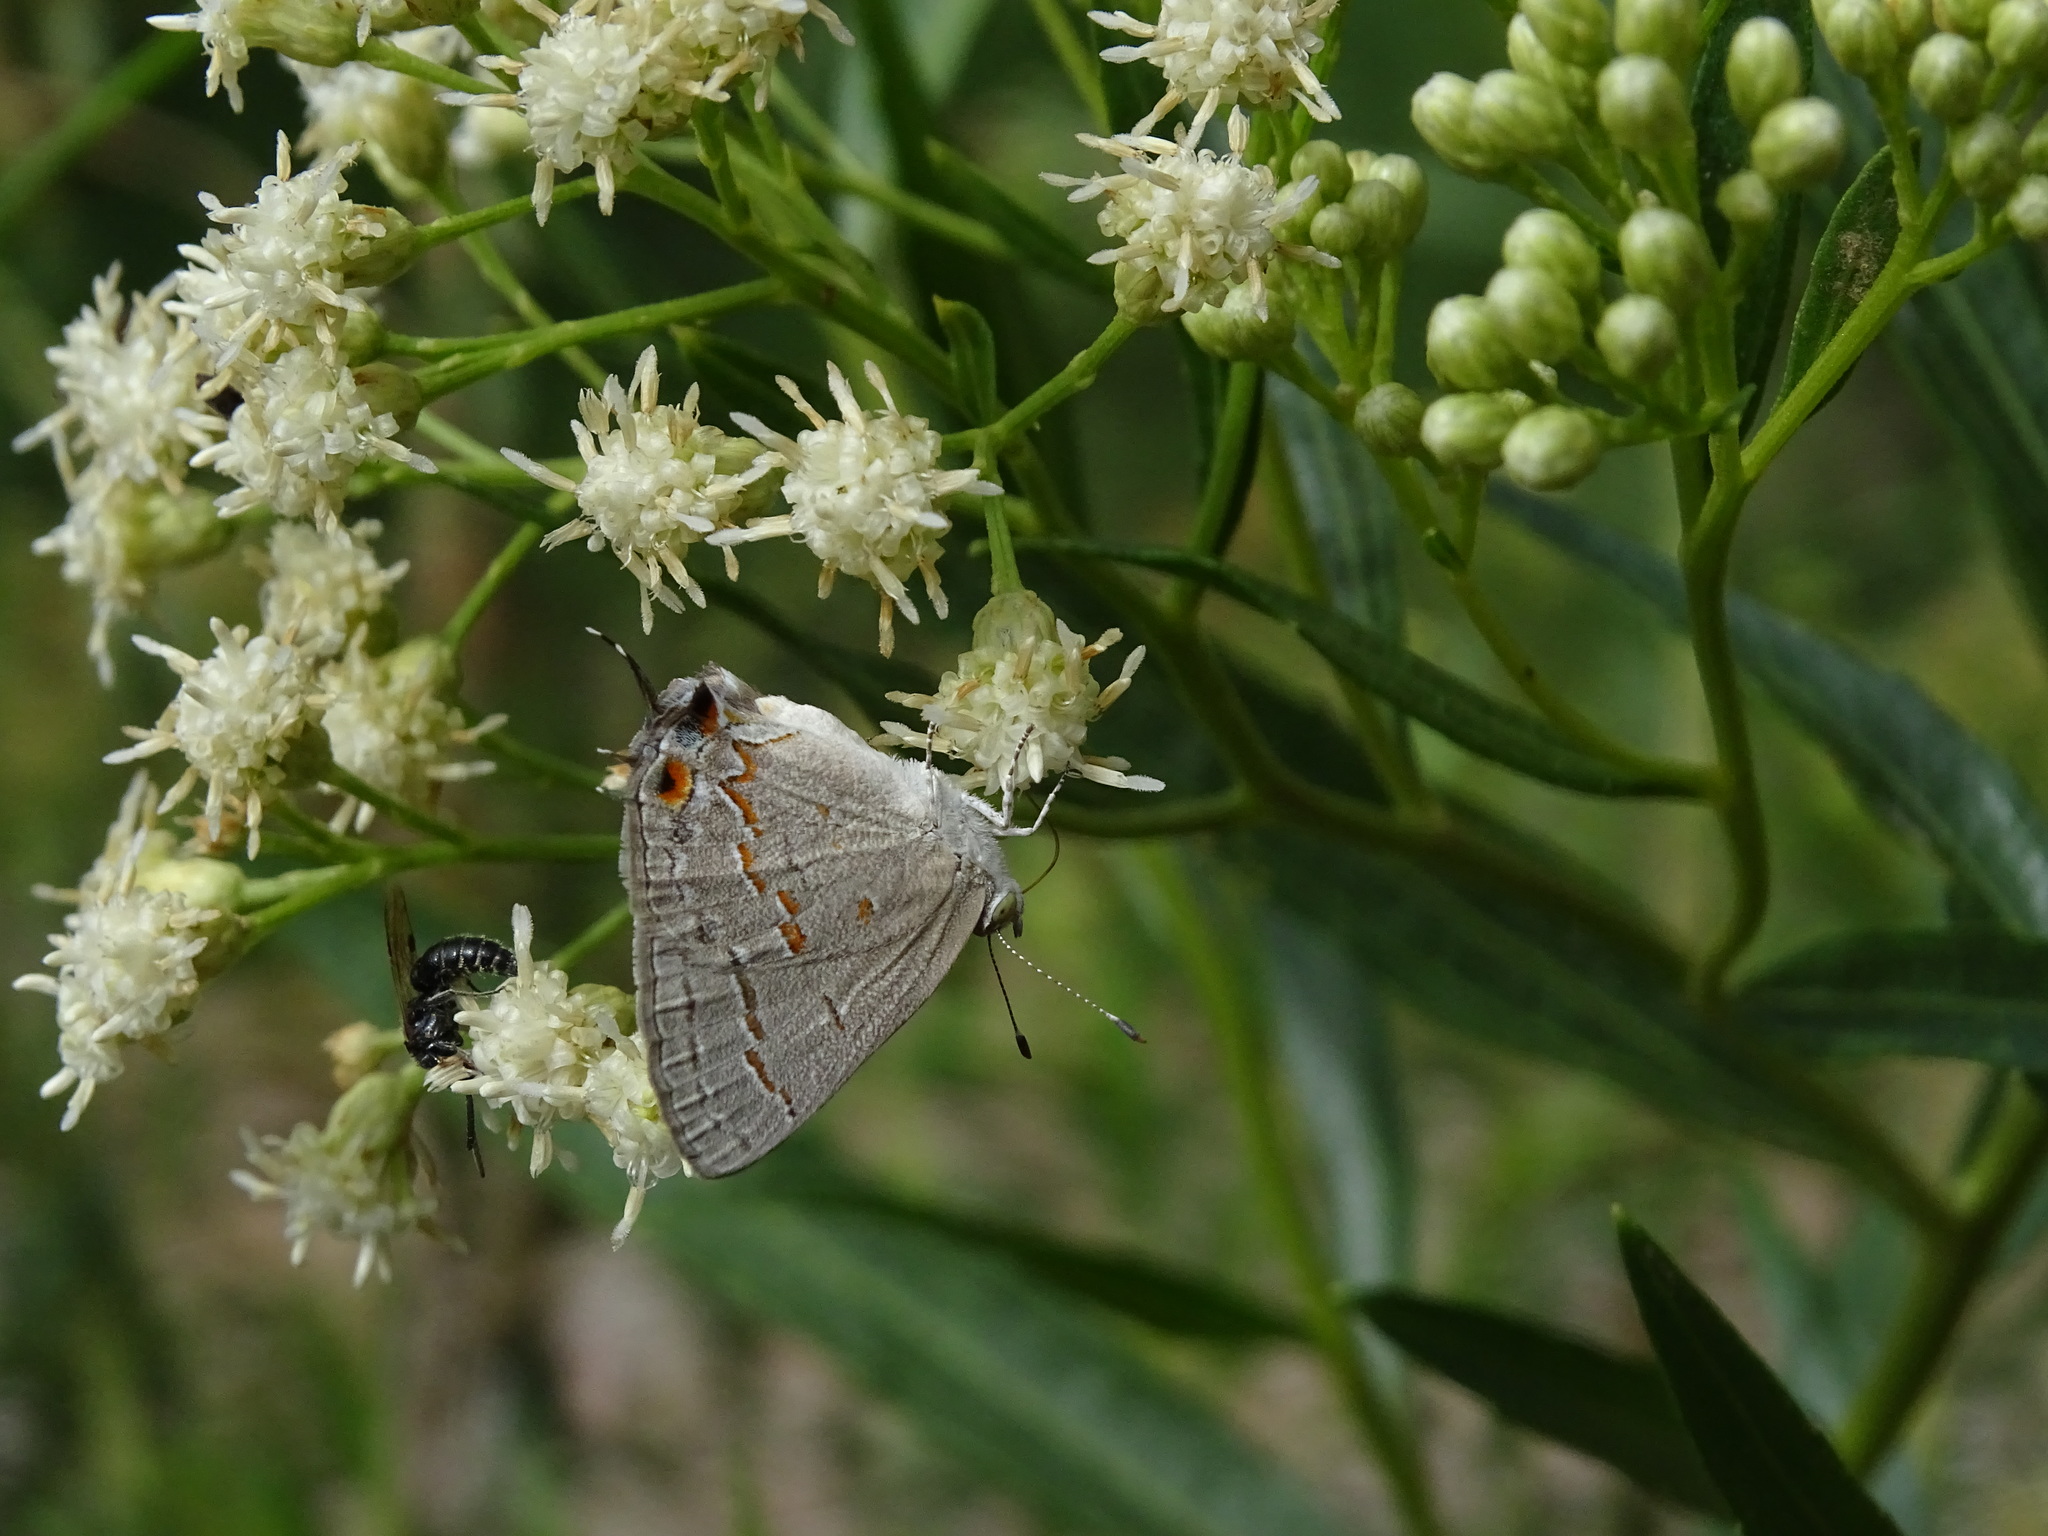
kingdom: Animalia
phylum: Arthropoda
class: Insecta
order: Lepidoptera
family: Lycaenidae
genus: Ministrymon
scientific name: Ministrymon leda
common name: Leda ministreak
